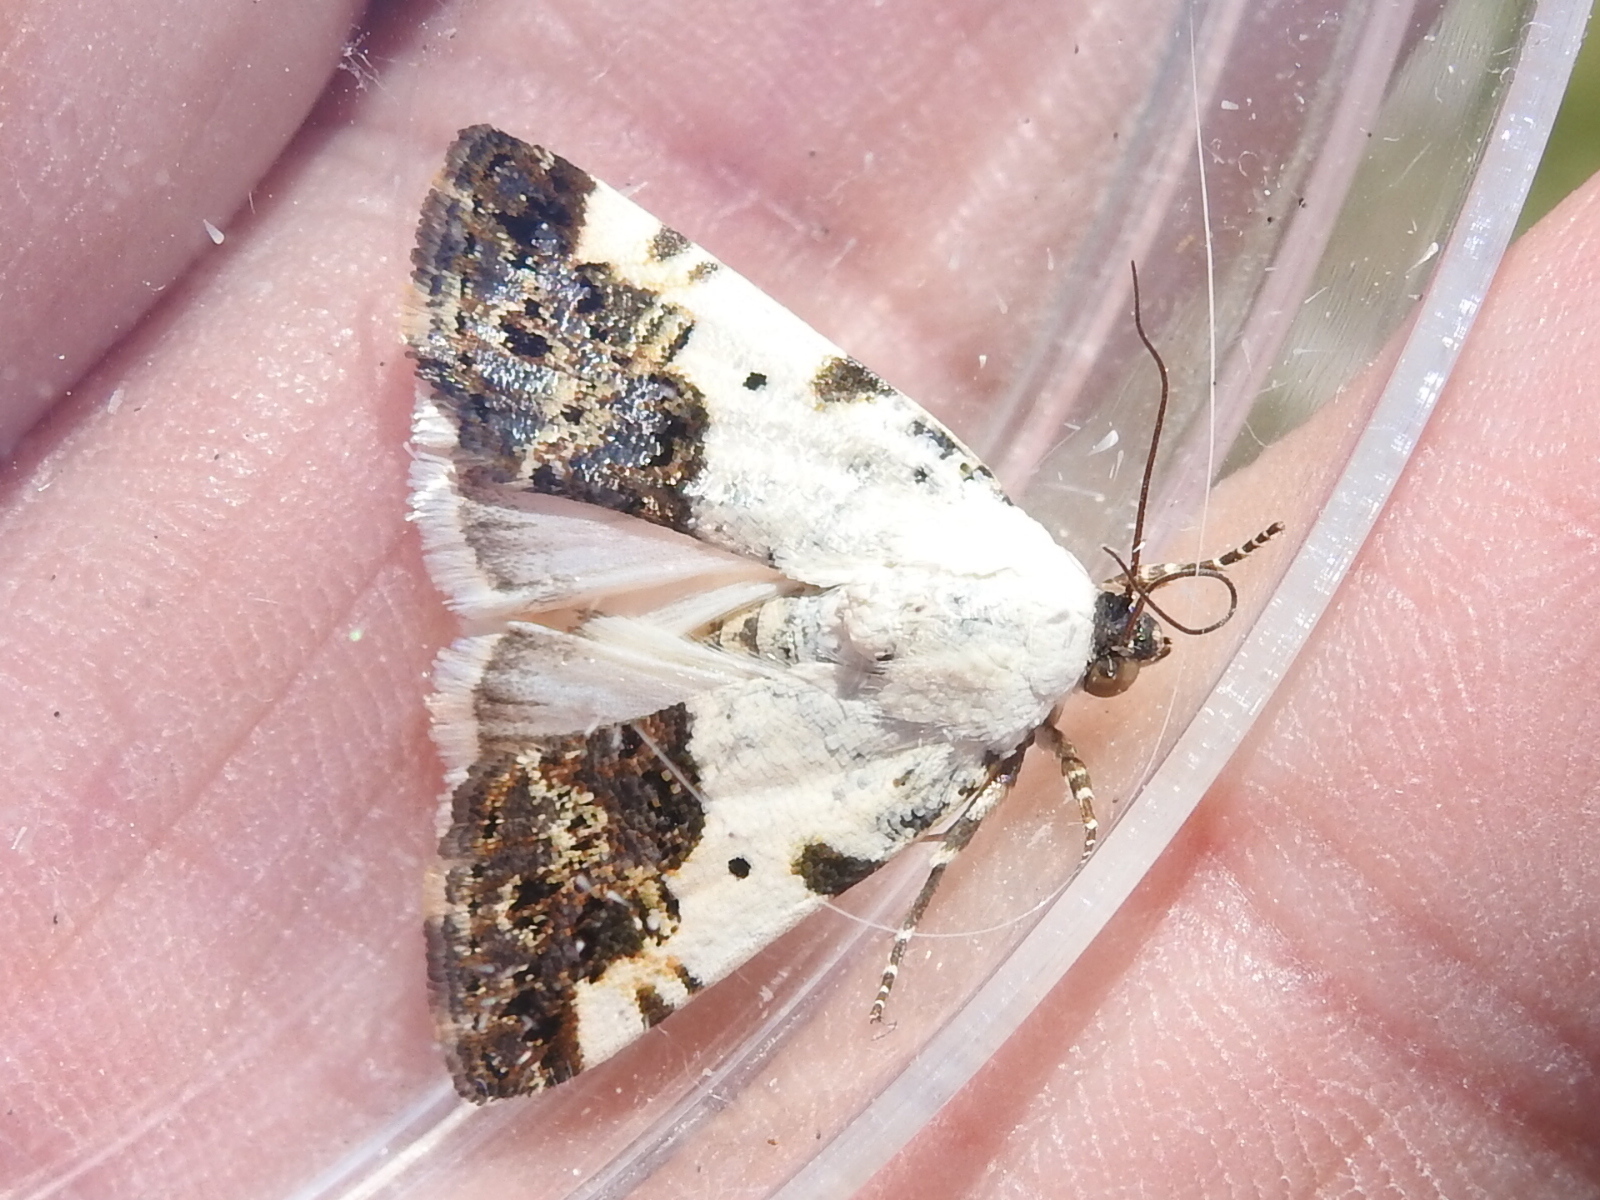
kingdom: Animalia
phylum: Arthropoda
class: Insecta
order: Lepidoptera
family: Noctuidae
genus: Acontia
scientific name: Acontia aprica
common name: Nun
